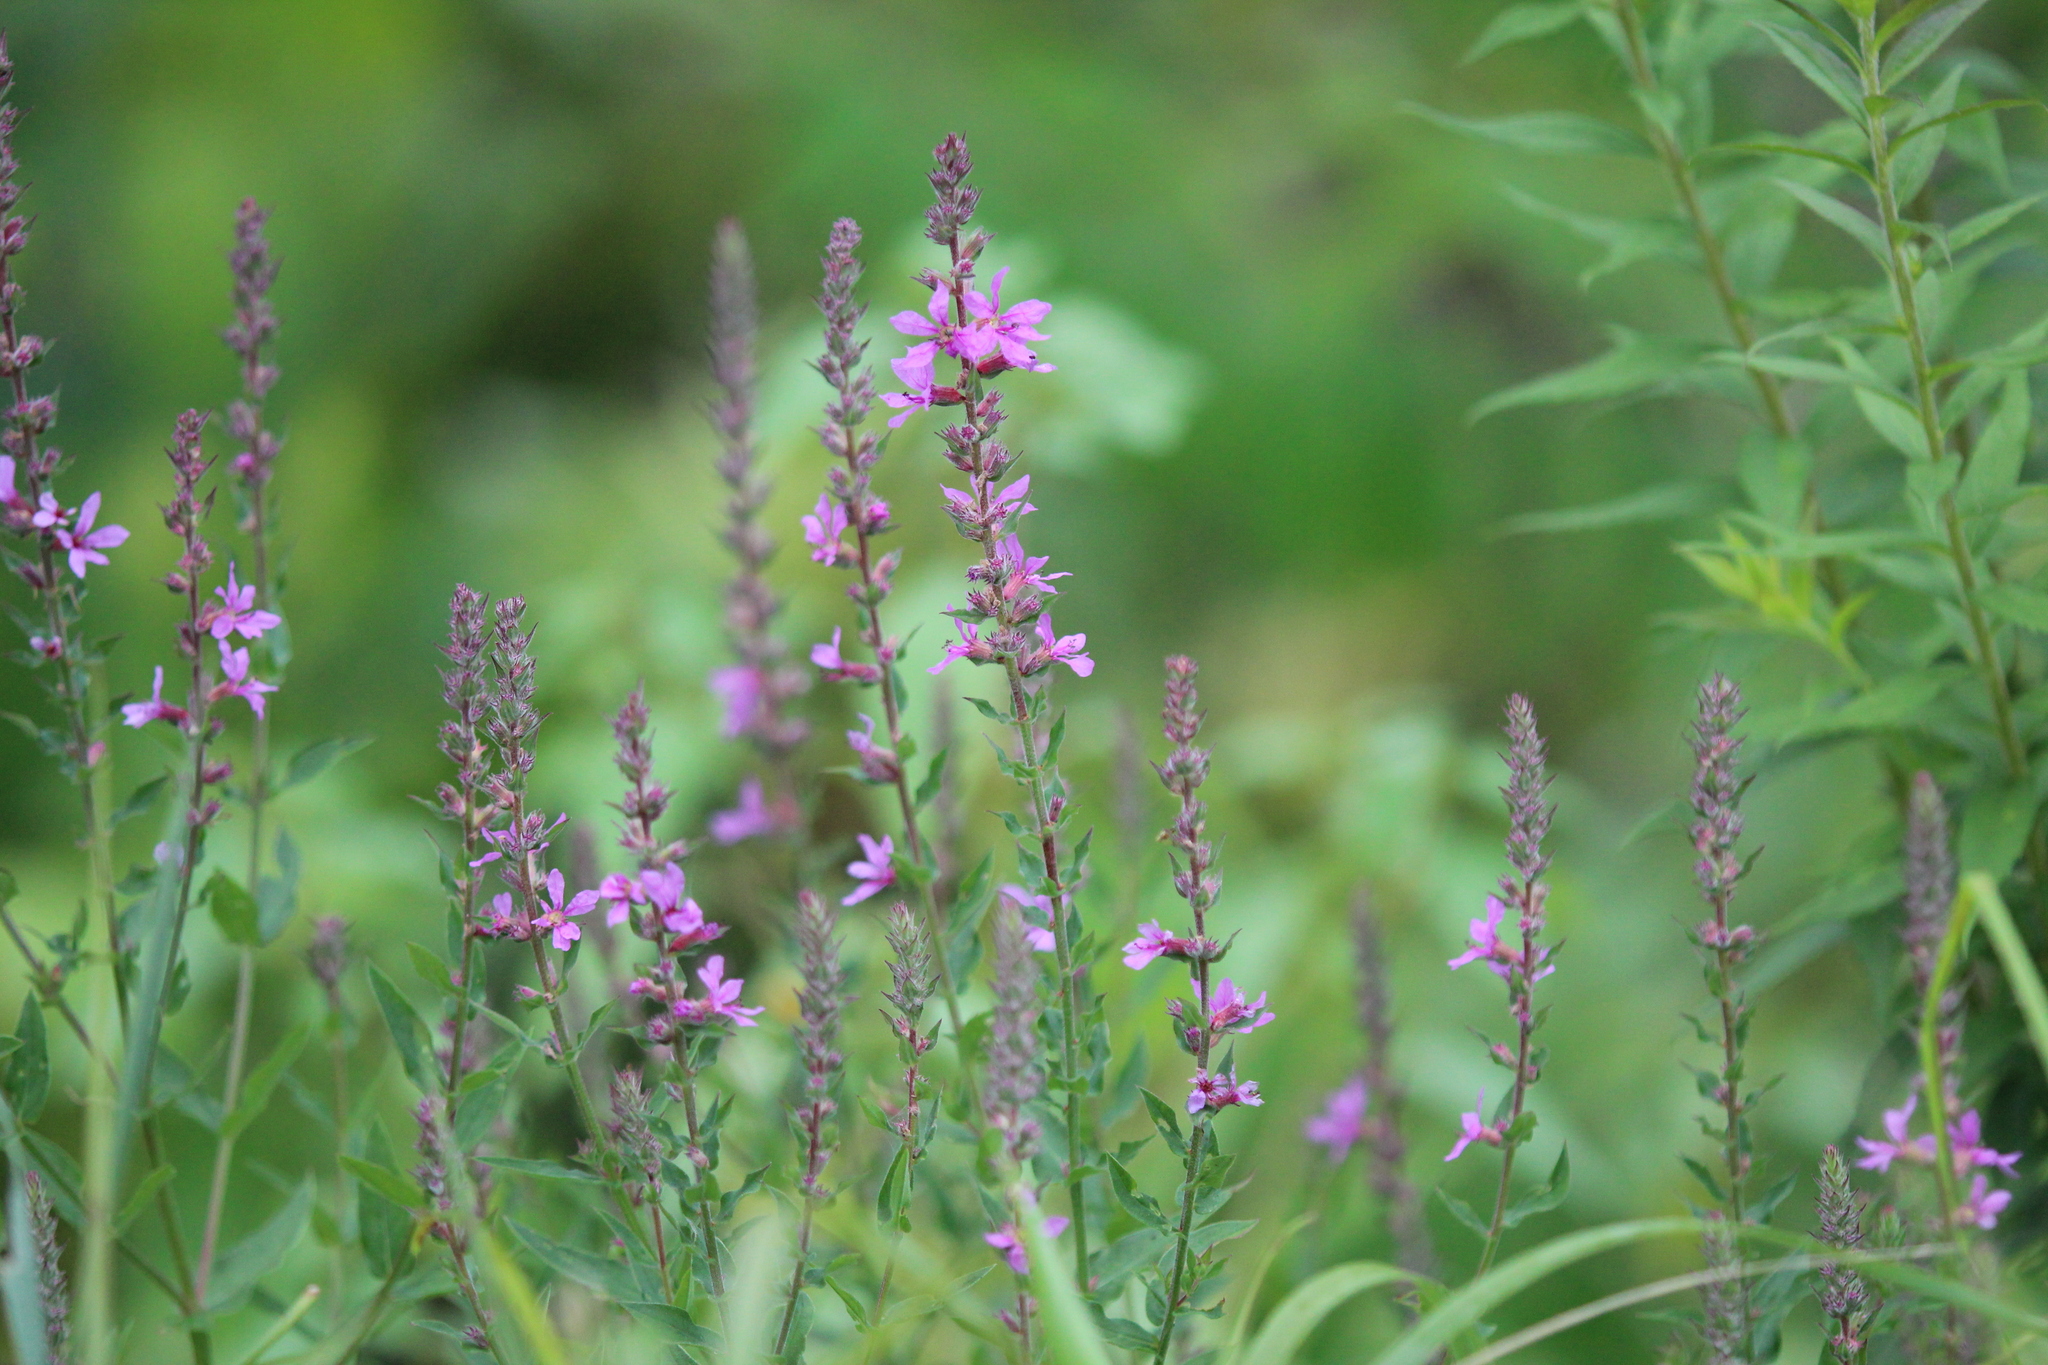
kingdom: Plantae
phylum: Tracheophyta
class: Magnoliopsida
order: Myrtales
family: Lythraceae
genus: Lythrum
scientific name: Lythrum salicaria
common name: Purple loosestrife
